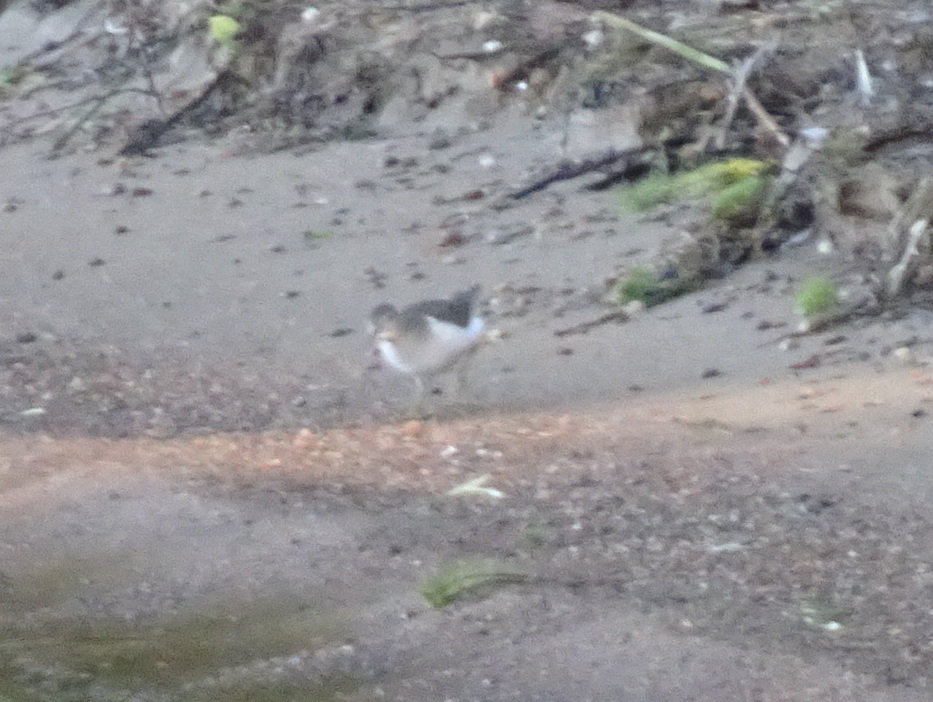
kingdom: Animalia
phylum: Chordata
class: Aves
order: Charadriiformes
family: Scolopacidae
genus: Actitis
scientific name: Actitis macularius
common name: Spotted sandpiper
